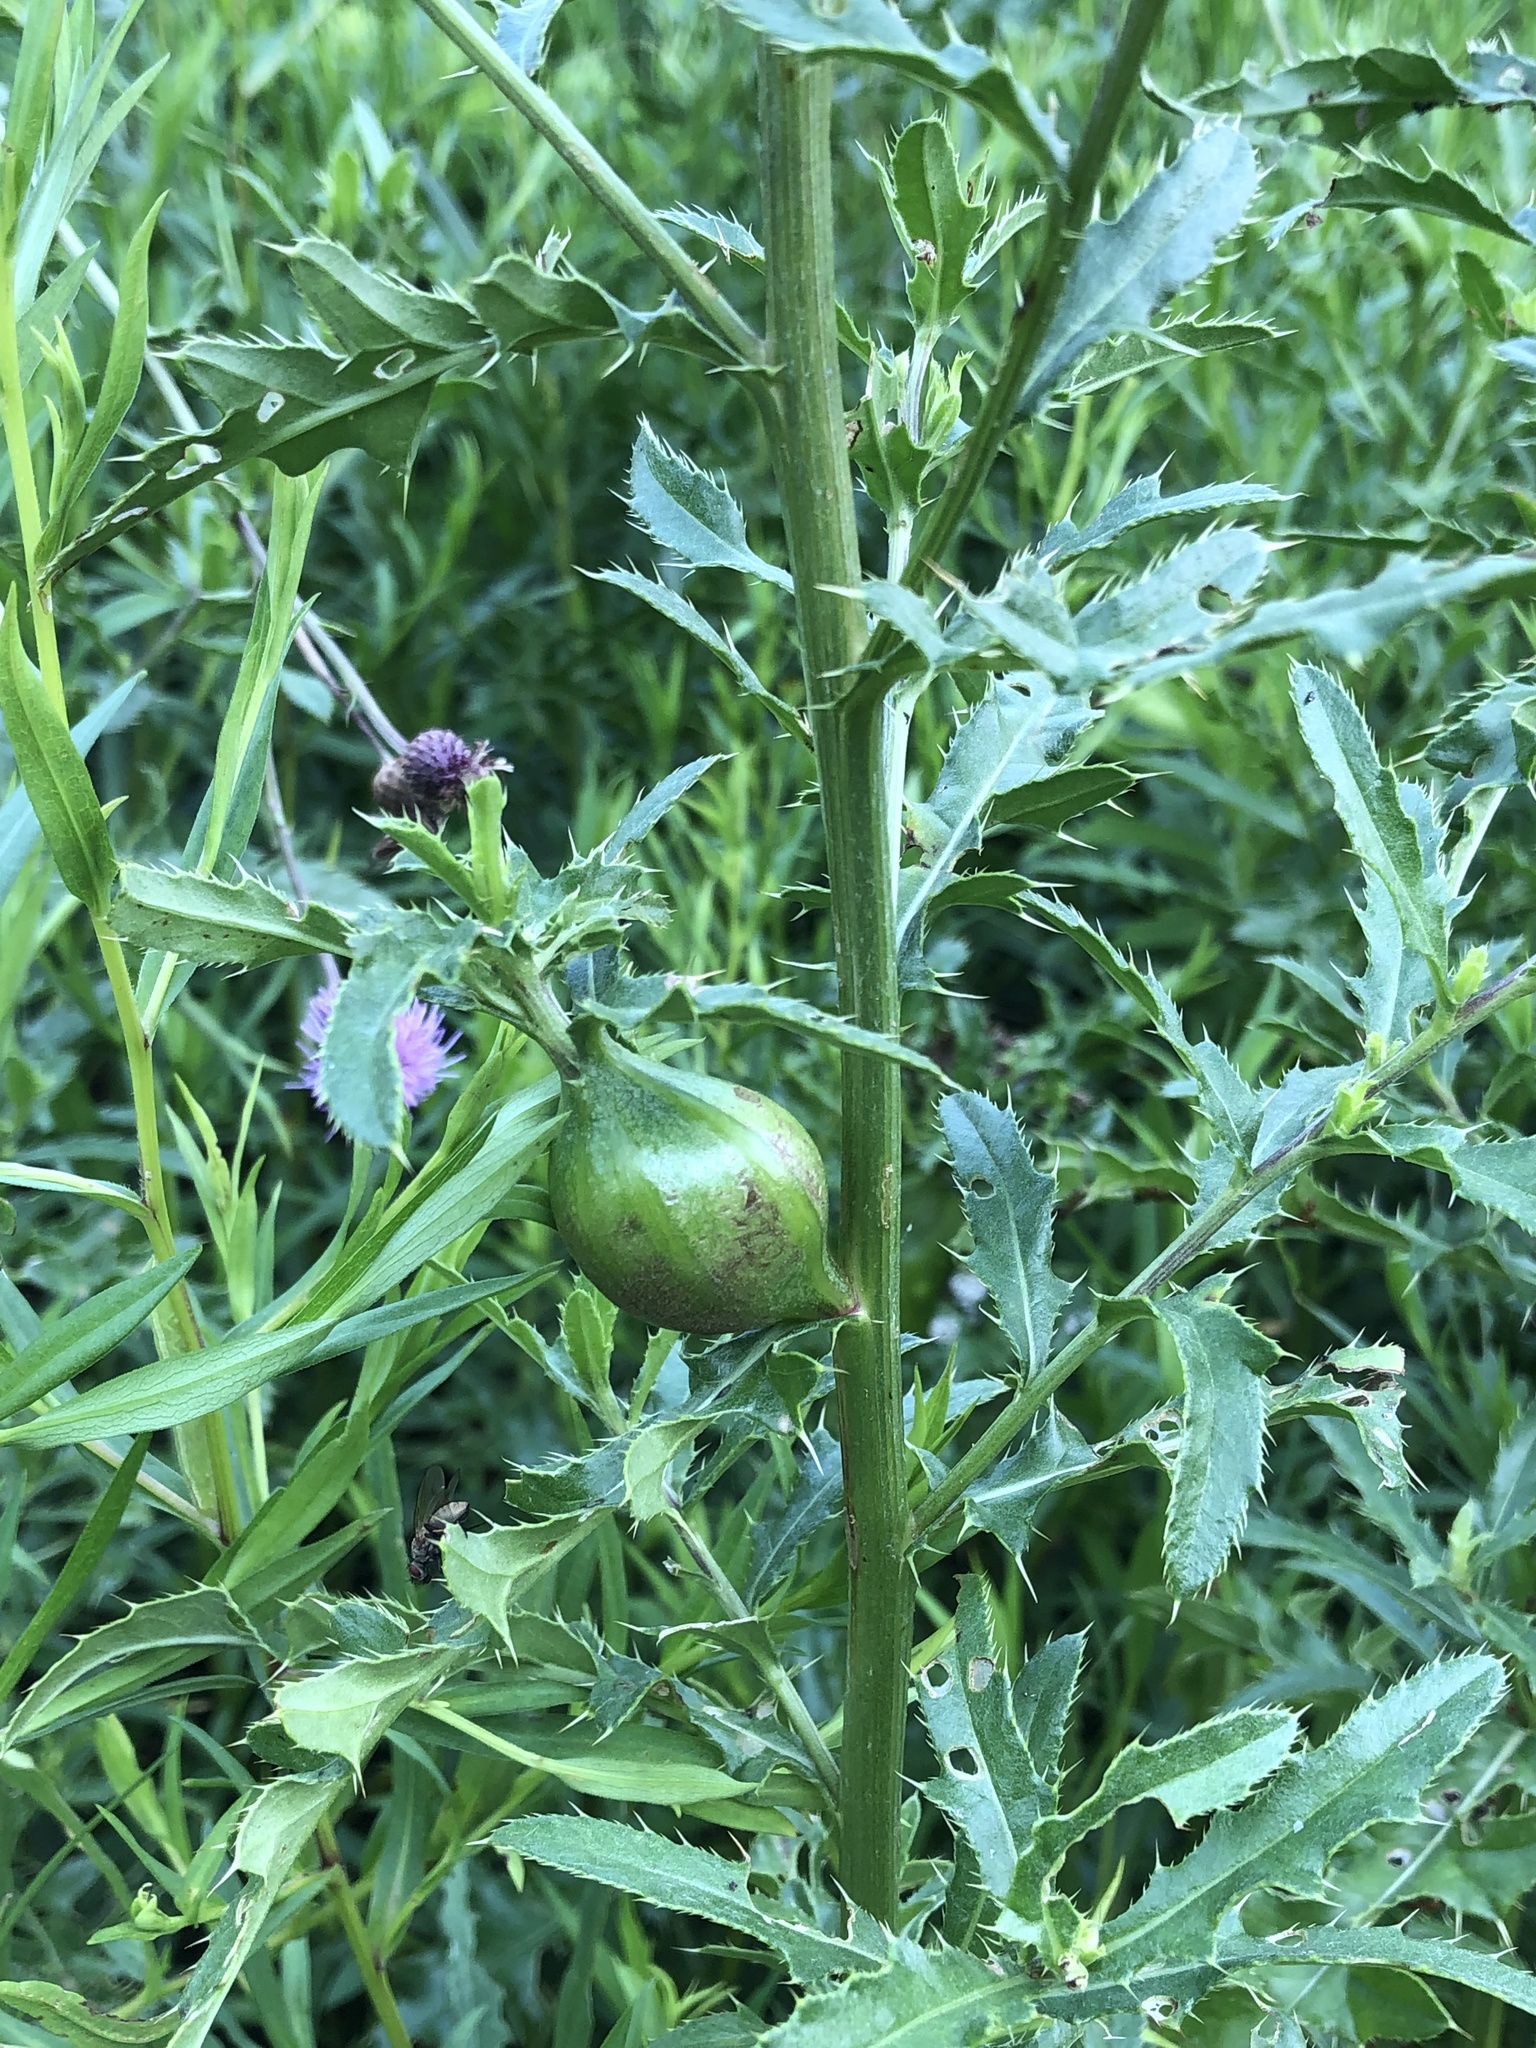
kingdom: Animalia
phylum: Arthropoda
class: Insecta
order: Diptera
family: Tephritidae
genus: Urophora
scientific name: Urophora cardui
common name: Fruit fly
